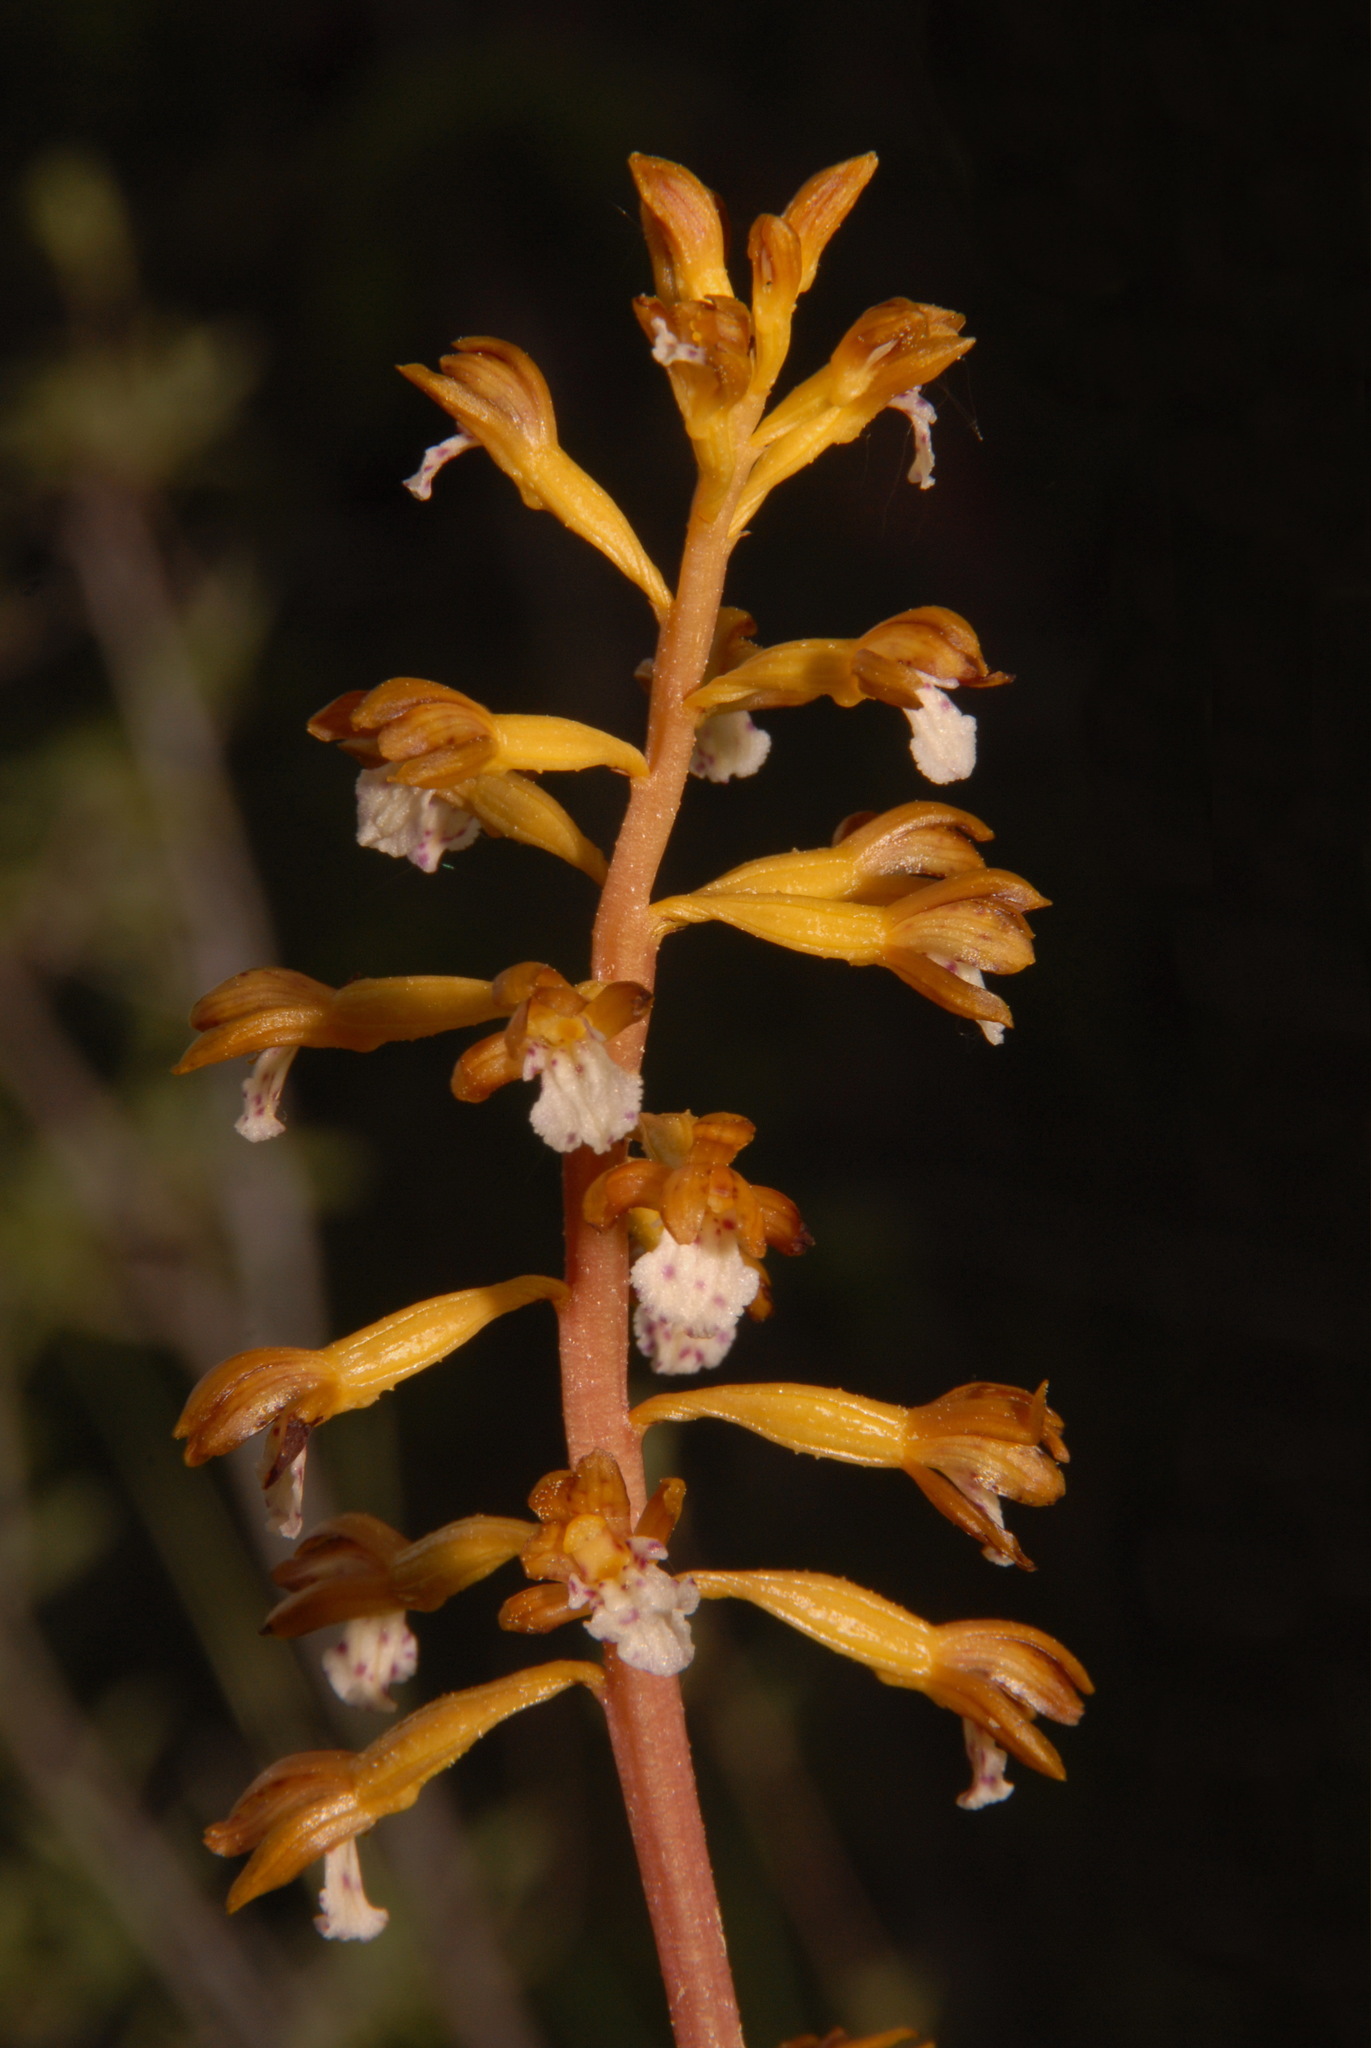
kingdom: Plantae
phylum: Tracheophyta
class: Liliopsida
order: Asparagales
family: Orchidaceae
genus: Corallorhiza
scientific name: Corallorhiza maculata
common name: Spotted coralroot
